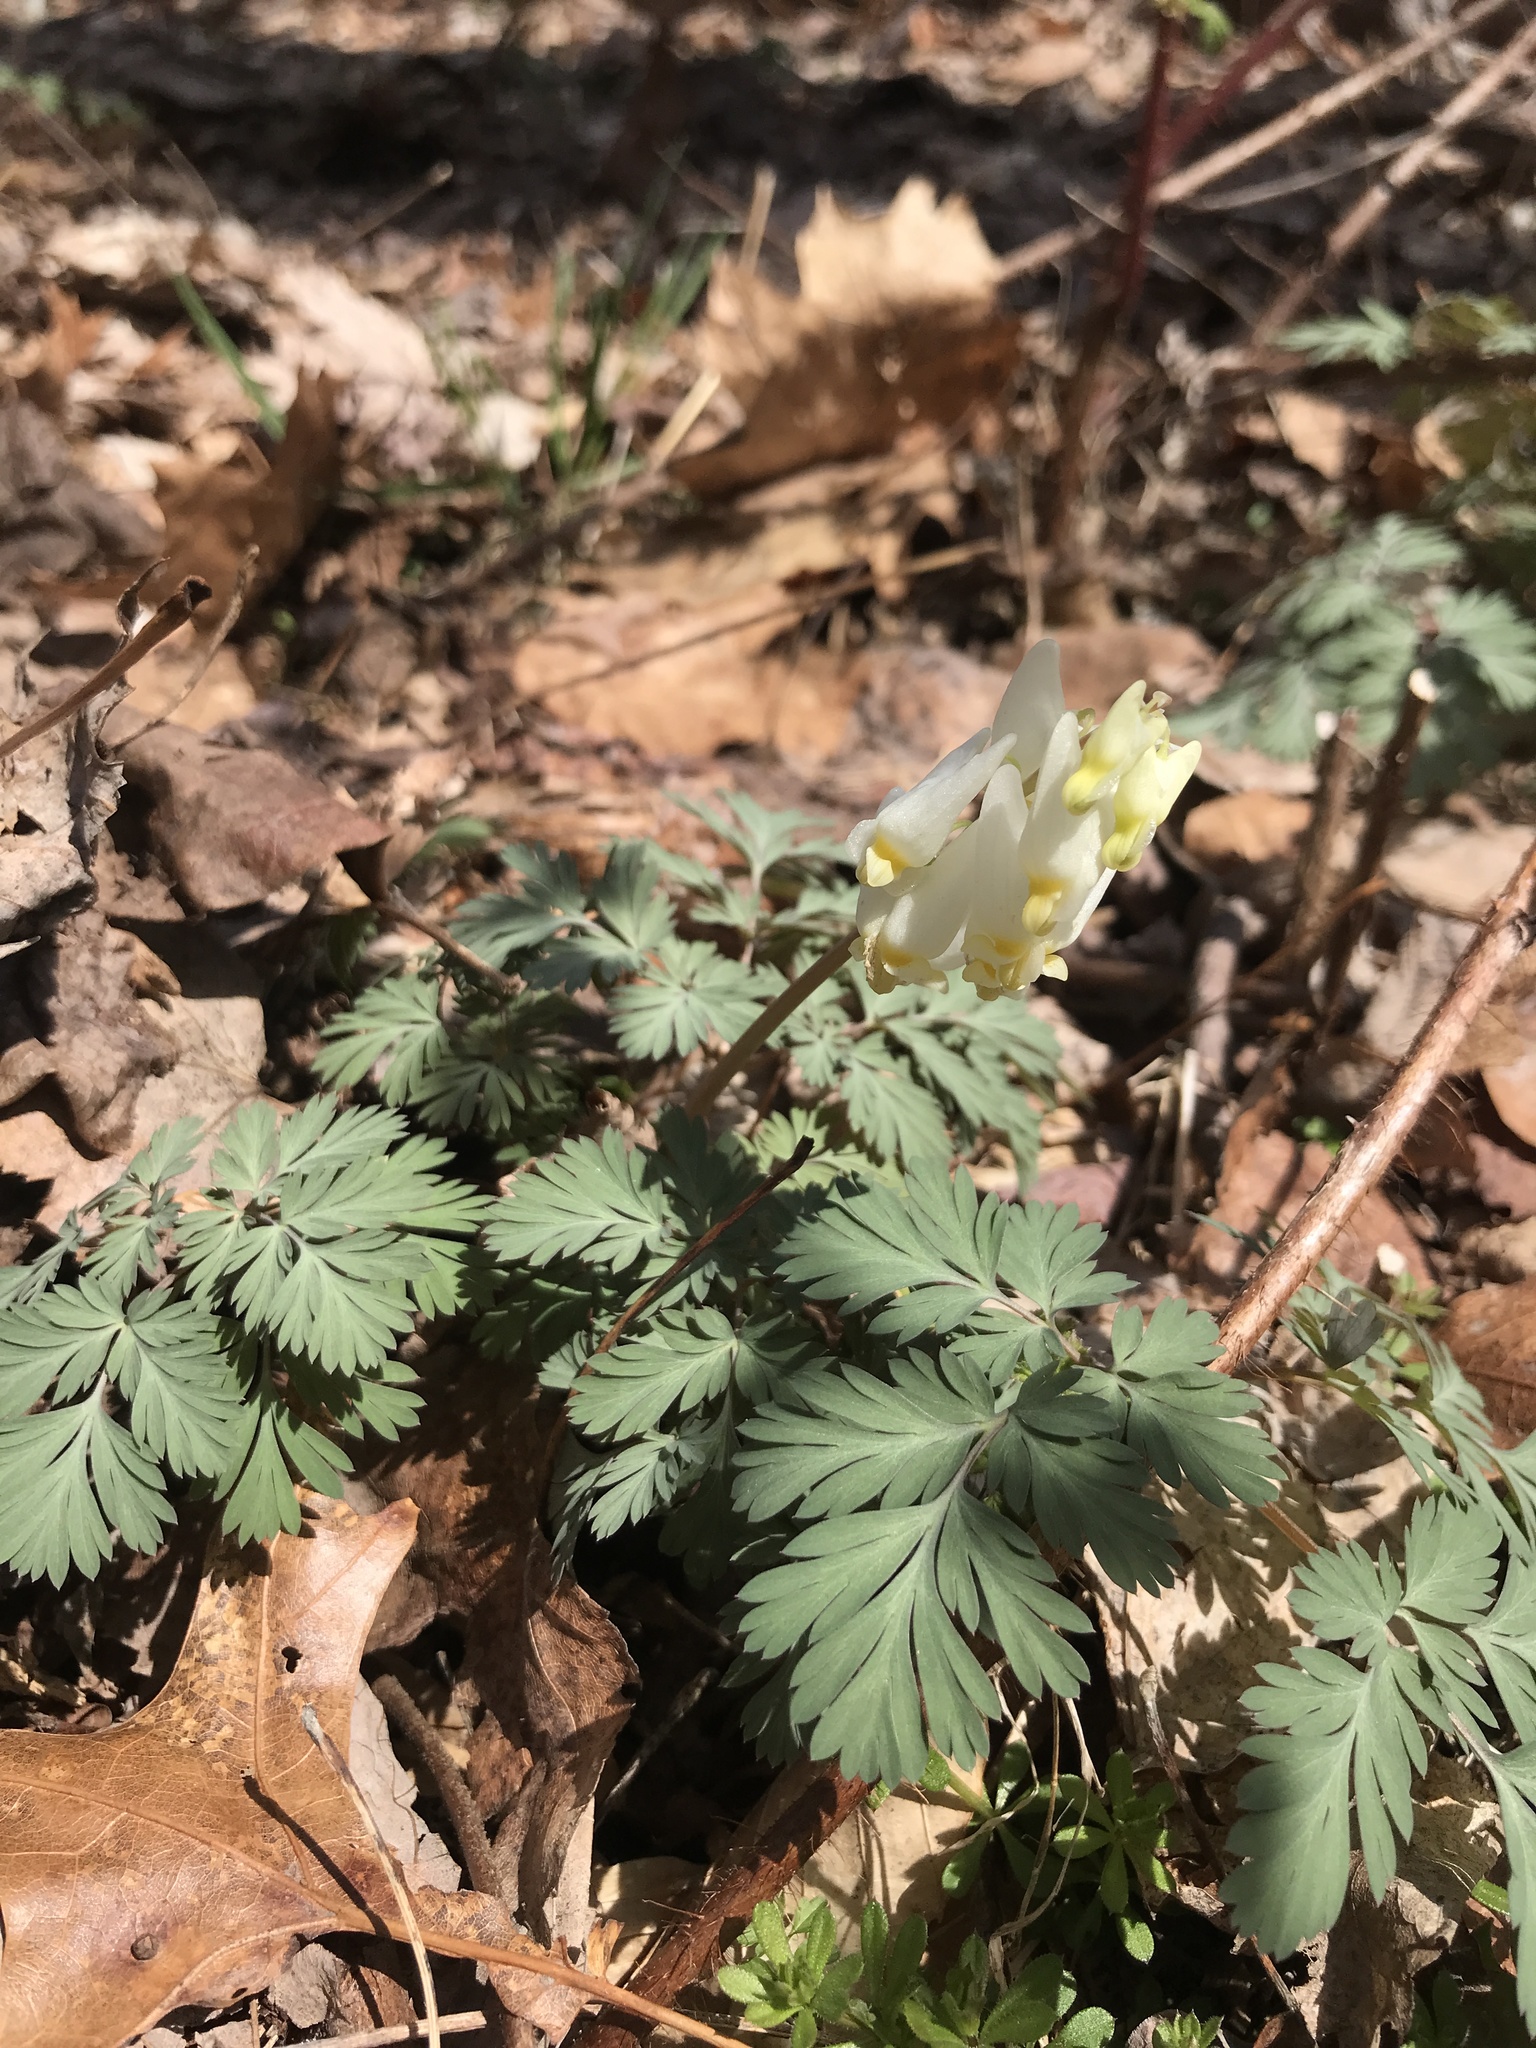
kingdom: Plantae
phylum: Tracheophyta
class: Magnoliopsida
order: Ranunculales
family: Papaveraceae
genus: Dicentra
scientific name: Dicentra cucullaria
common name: Dutchman's breeches
